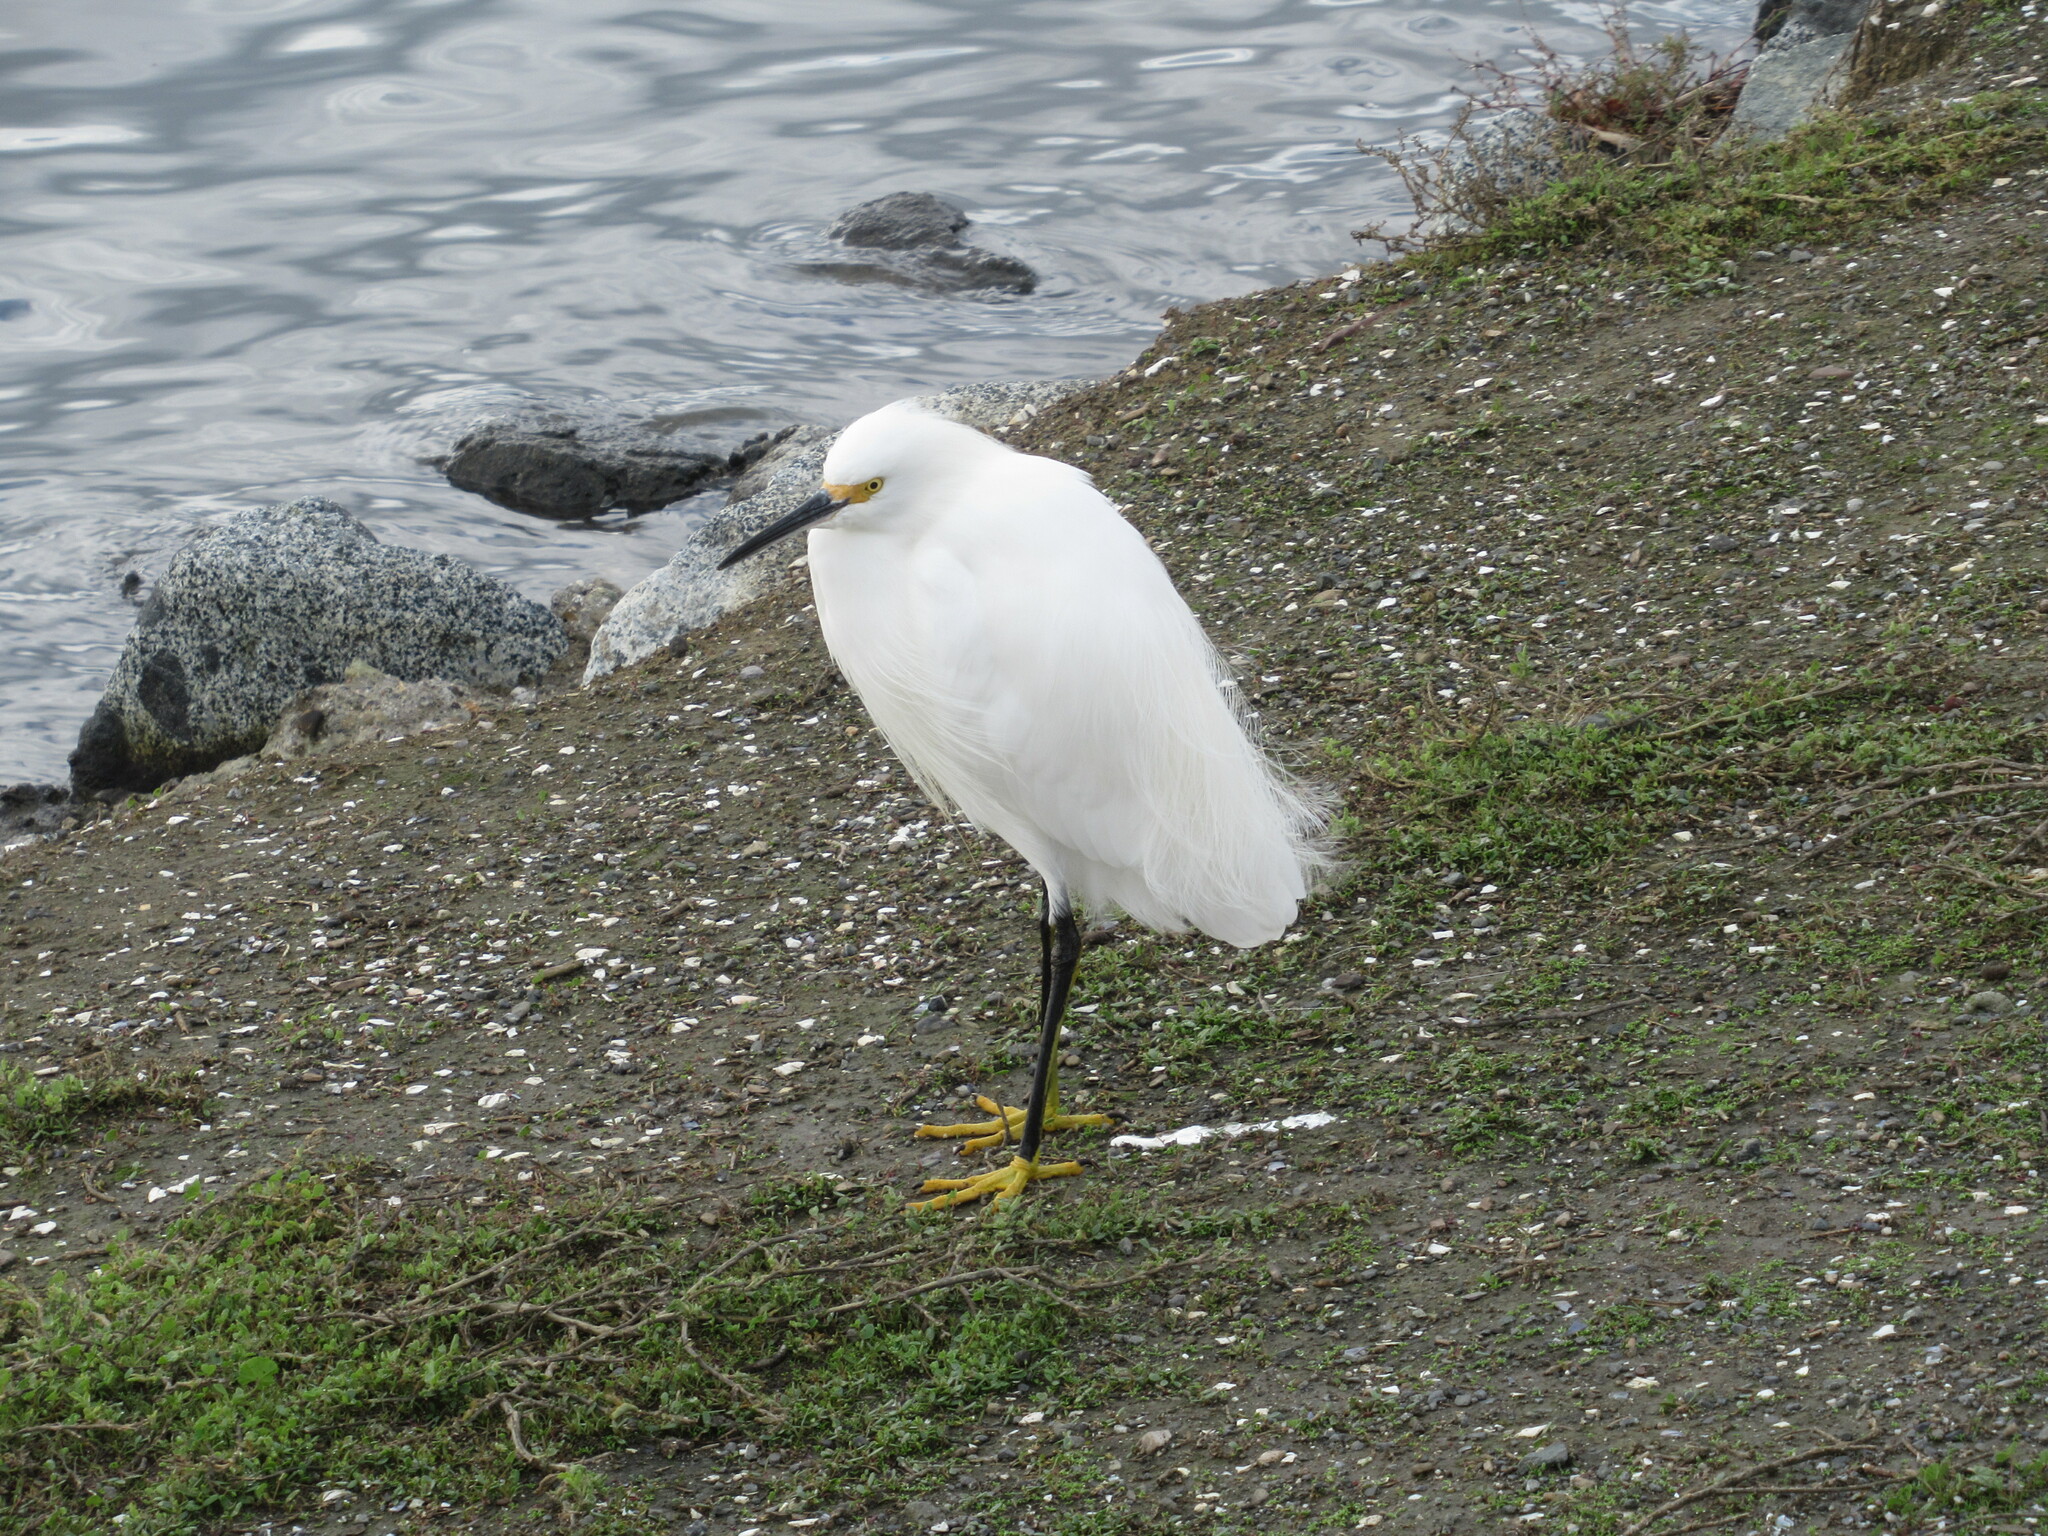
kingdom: Animalia
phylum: Chordata
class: Aves
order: Pelecaniformes
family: Ardeidae
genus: Egretta
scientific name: Egretta thula
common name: Snowy egret
